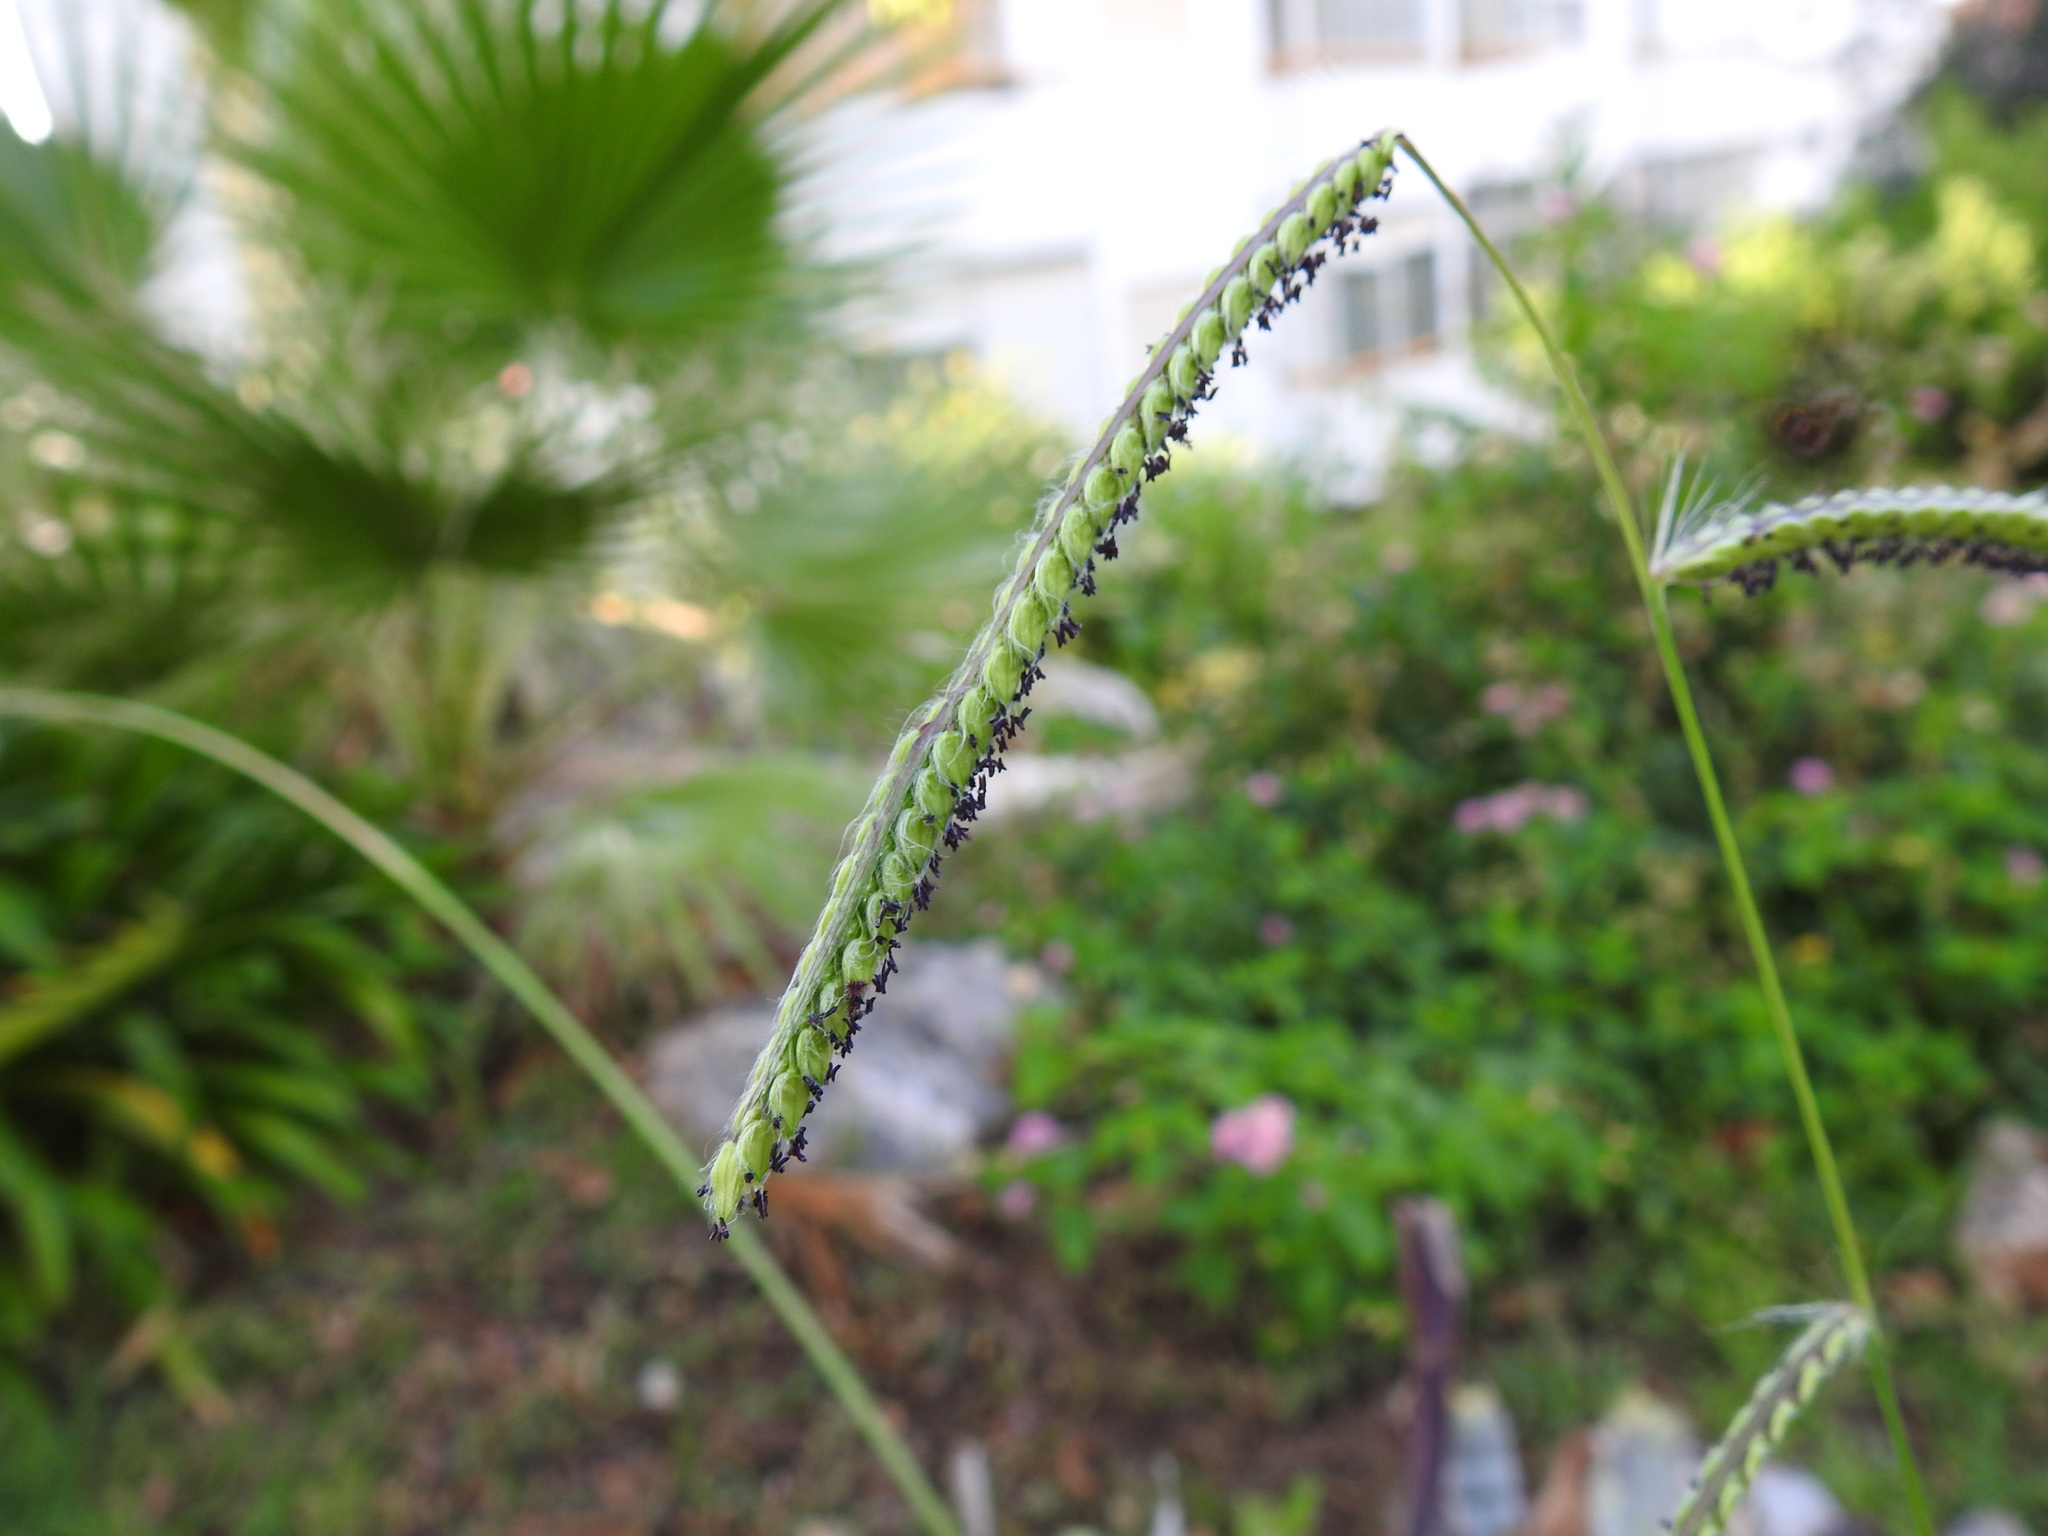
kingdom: Plantae
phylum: Tracheophyta
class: Liliopsida
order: Poales
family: Poaceae
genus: Paspalum
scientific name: Paspalum dilatatum
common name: Dallisgrass
